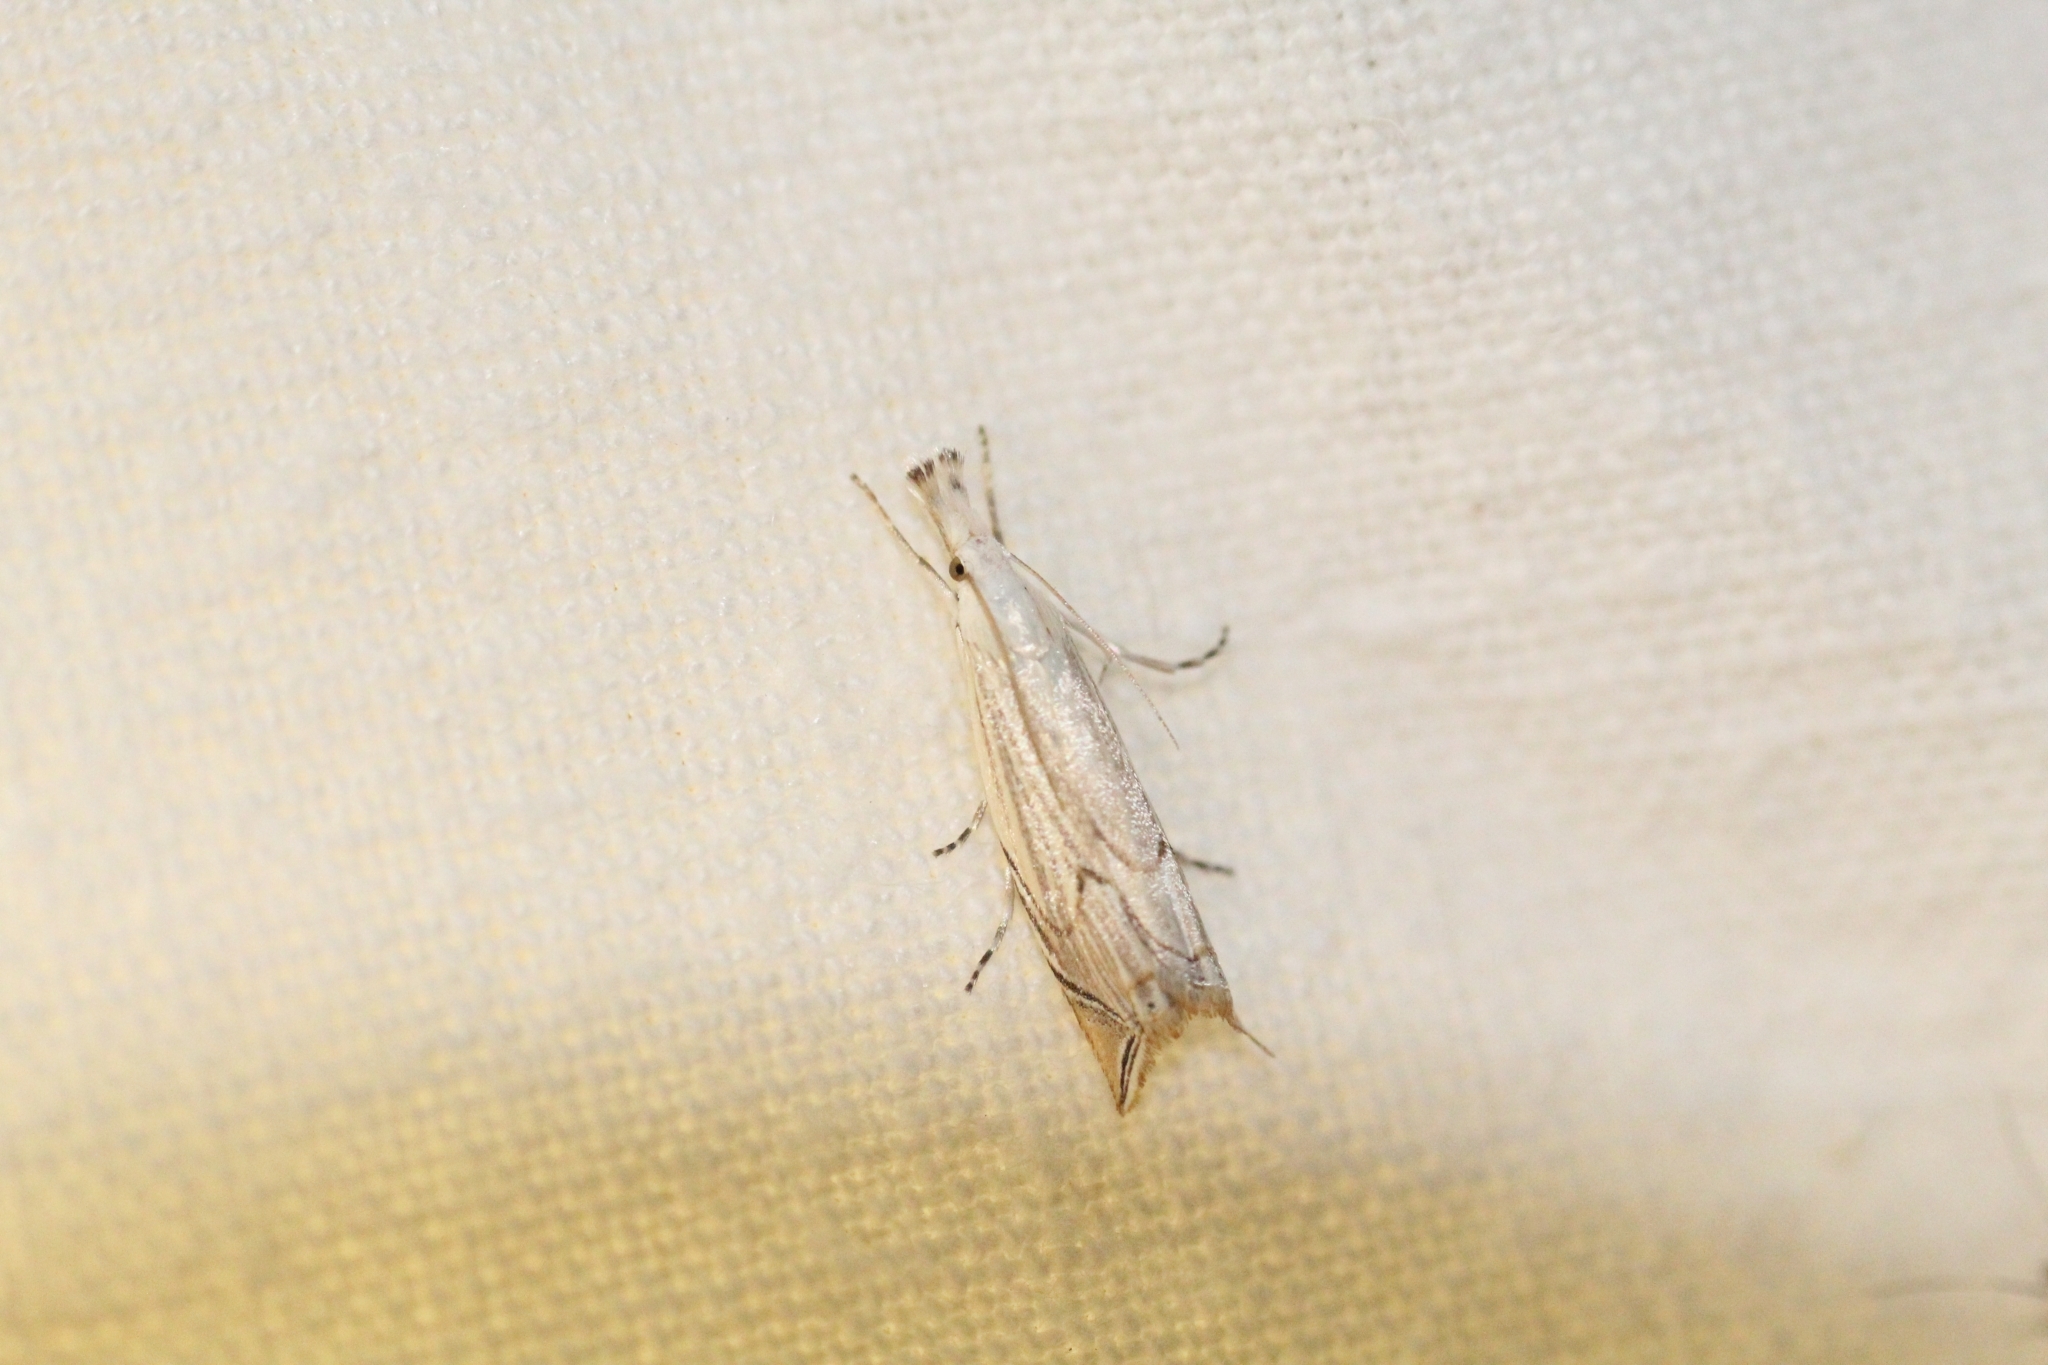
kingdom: Animalia
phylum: Arthropoda
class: Insecta
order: Lepidoptera
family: Crambidae
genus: Metacrambus
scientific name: Metacrambus carectellus
